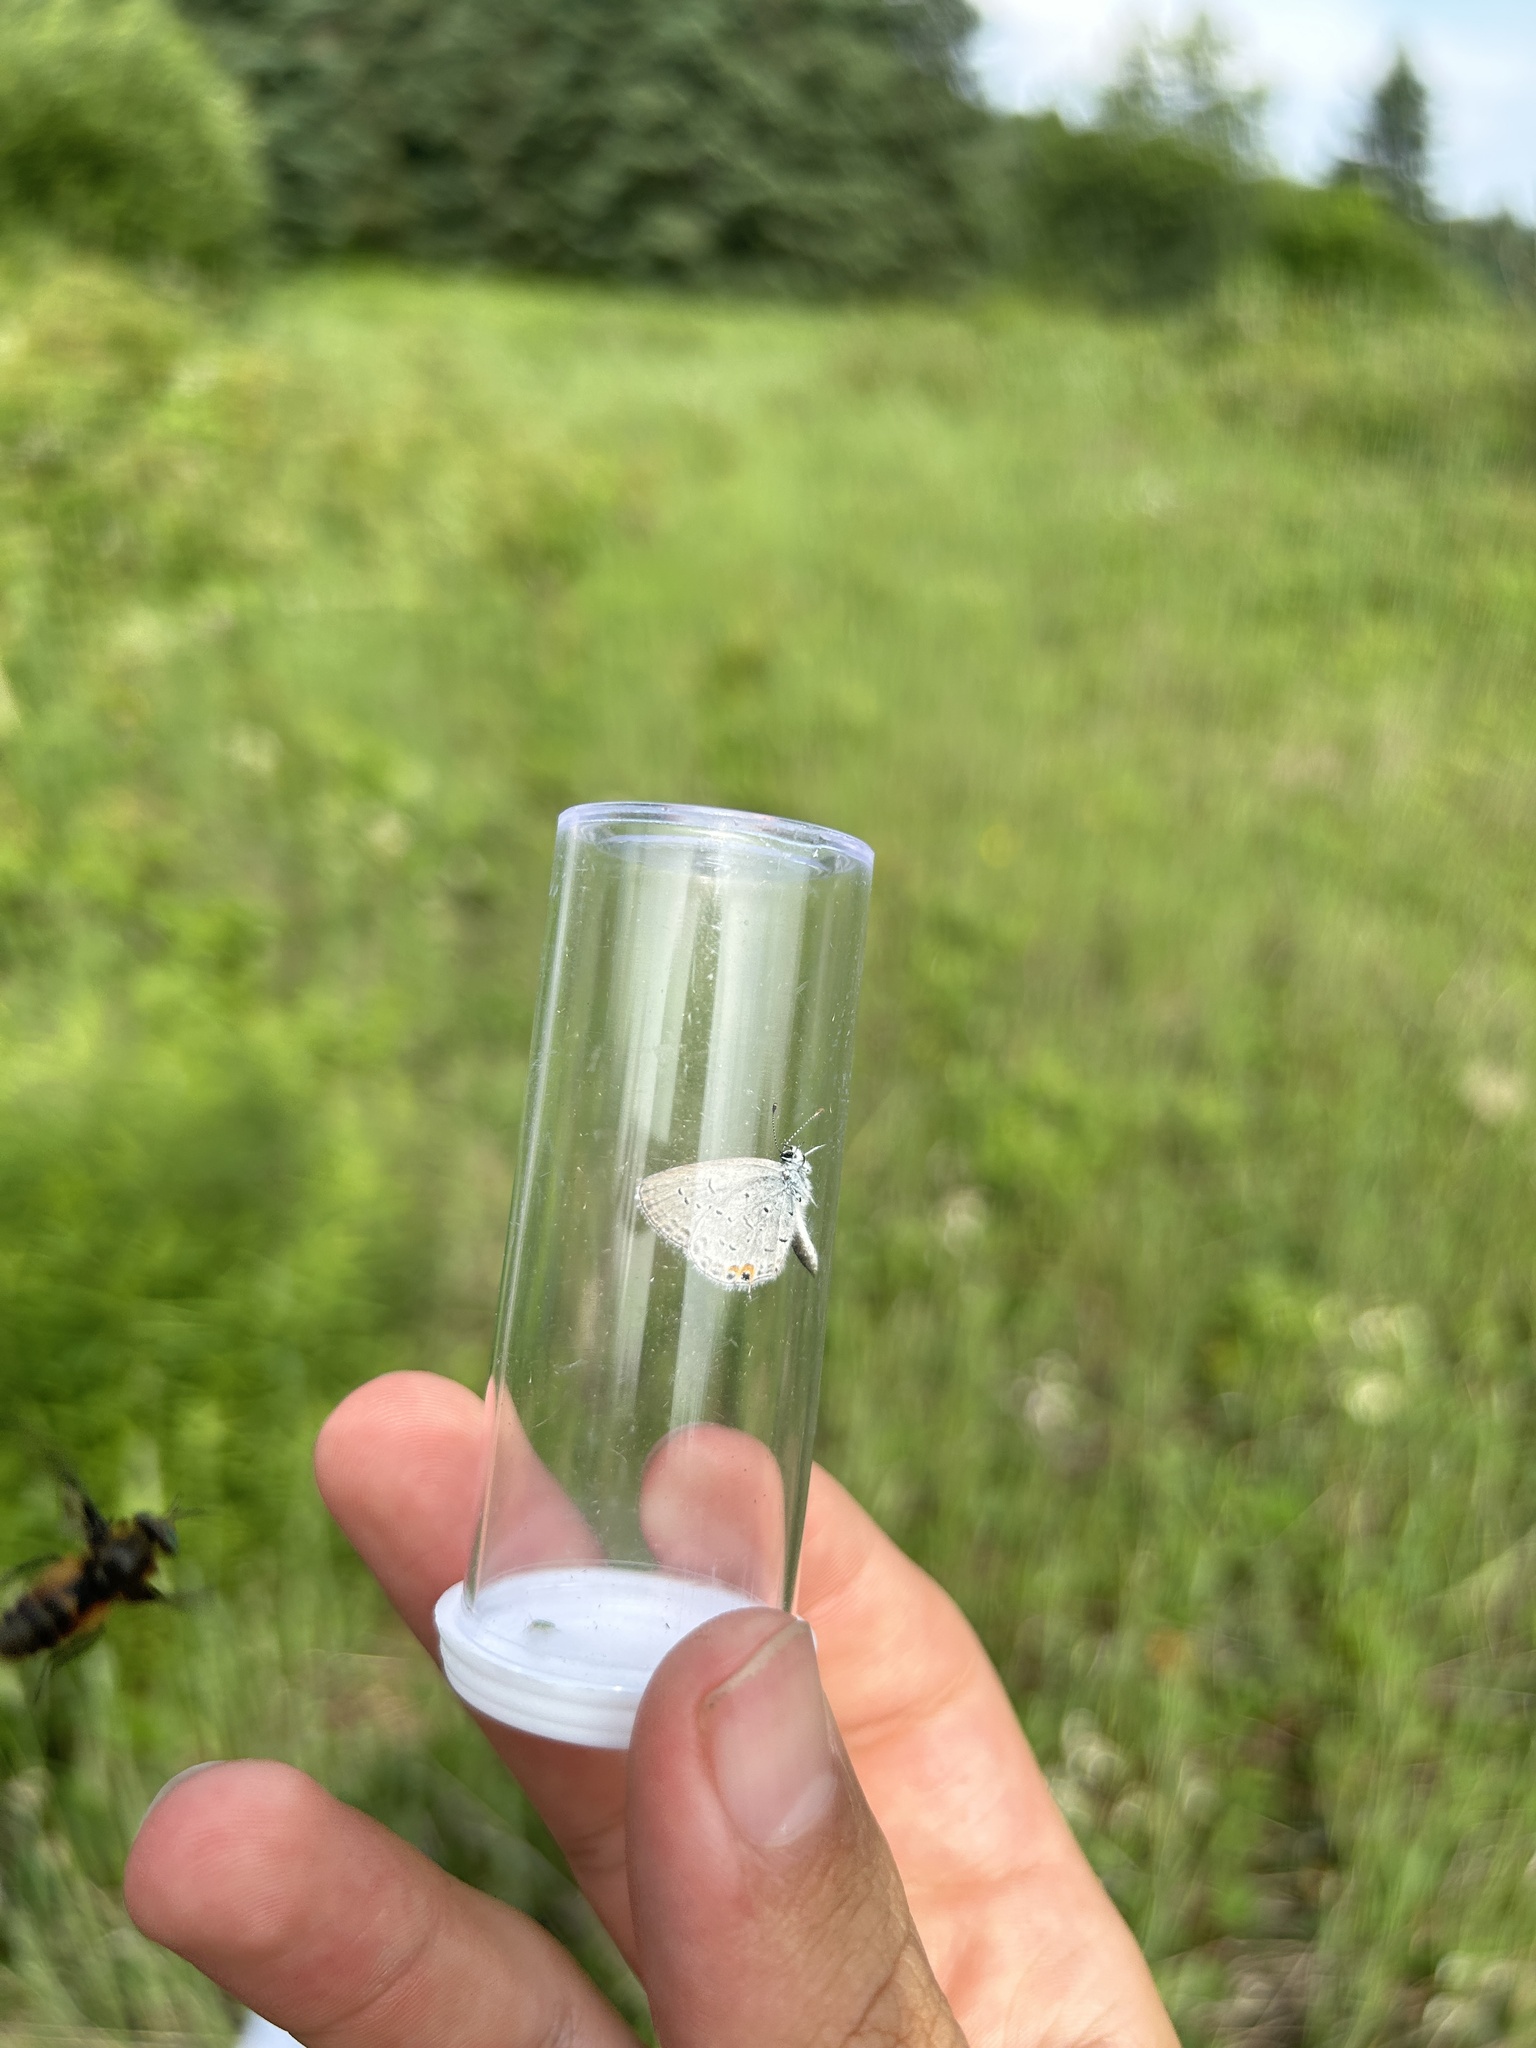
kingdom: Animalia
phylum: Arthropoda
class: Insecta
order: Lepidoptera
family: Lycaenidae
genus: Elkalyce
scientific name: Elkalyce comyntas
